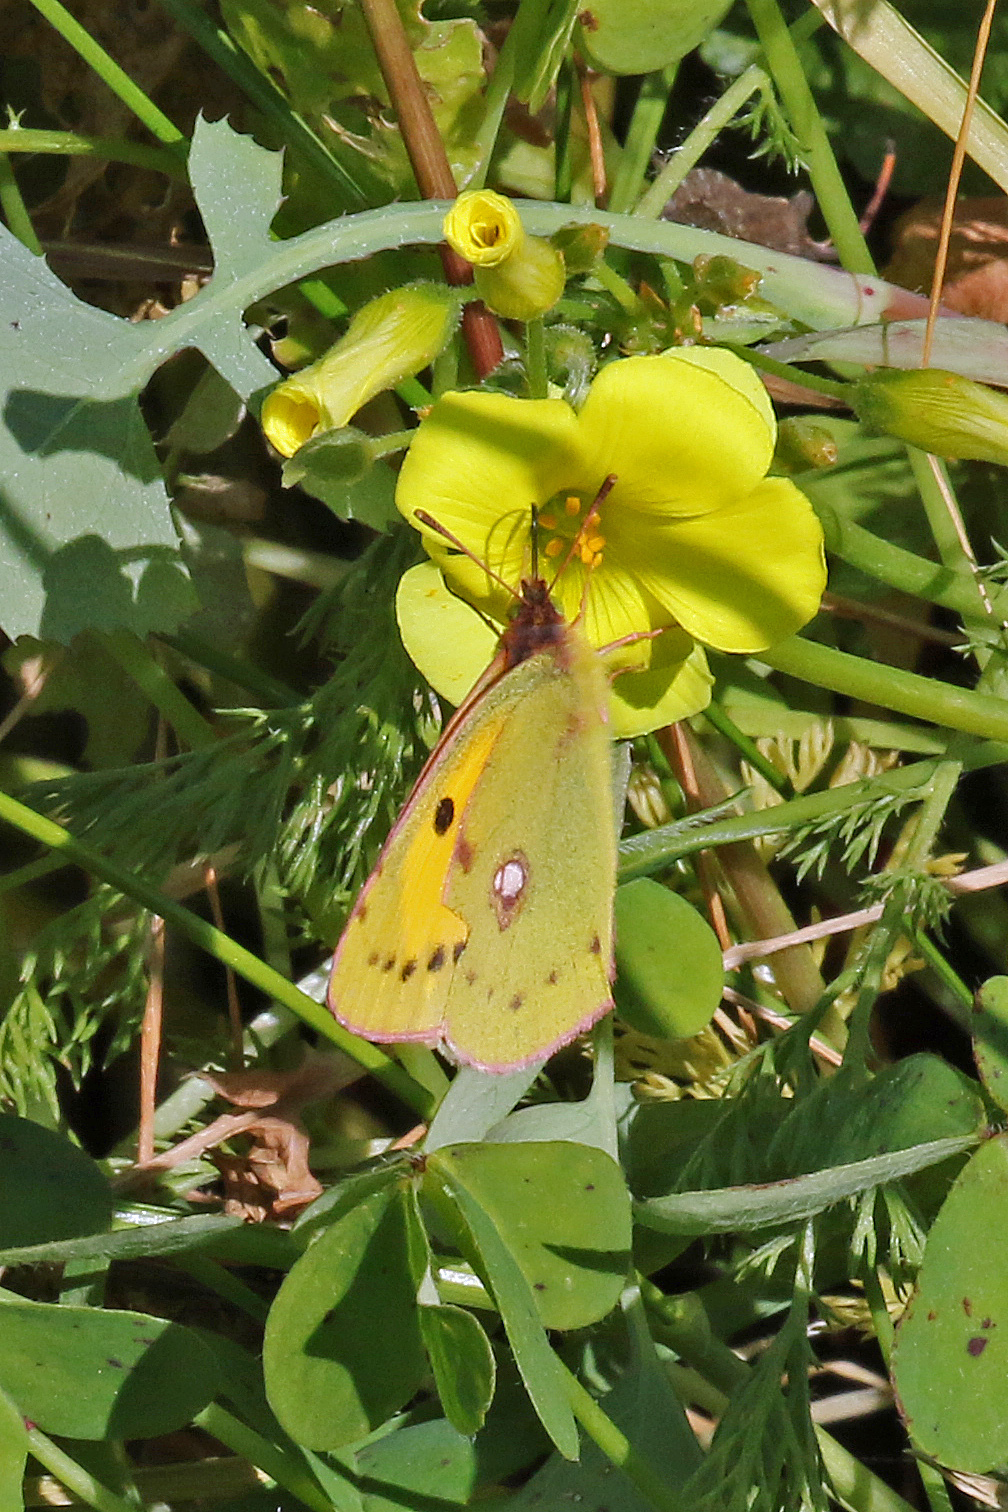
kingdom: Animalia
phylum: Arthropoda
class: Insecta
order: Lepidoptera
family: Pieridae
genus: Colias
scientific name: Colias croceus
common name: Clouded yellow
